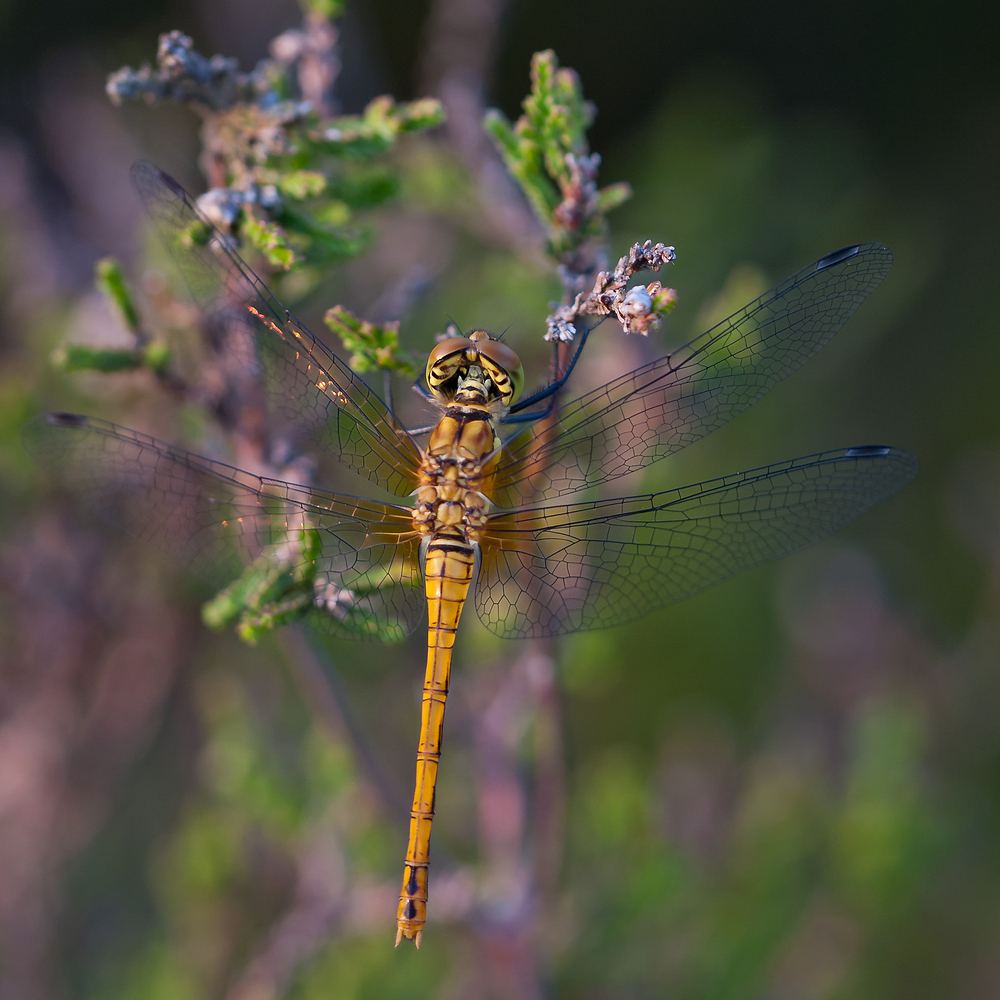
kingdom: Animalia
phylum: Arthropoda
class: Insecta
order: Odonata
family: Libellulidae
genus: Sympetrum
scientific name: Sympetrum sanguineum
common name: Ruddy darter
